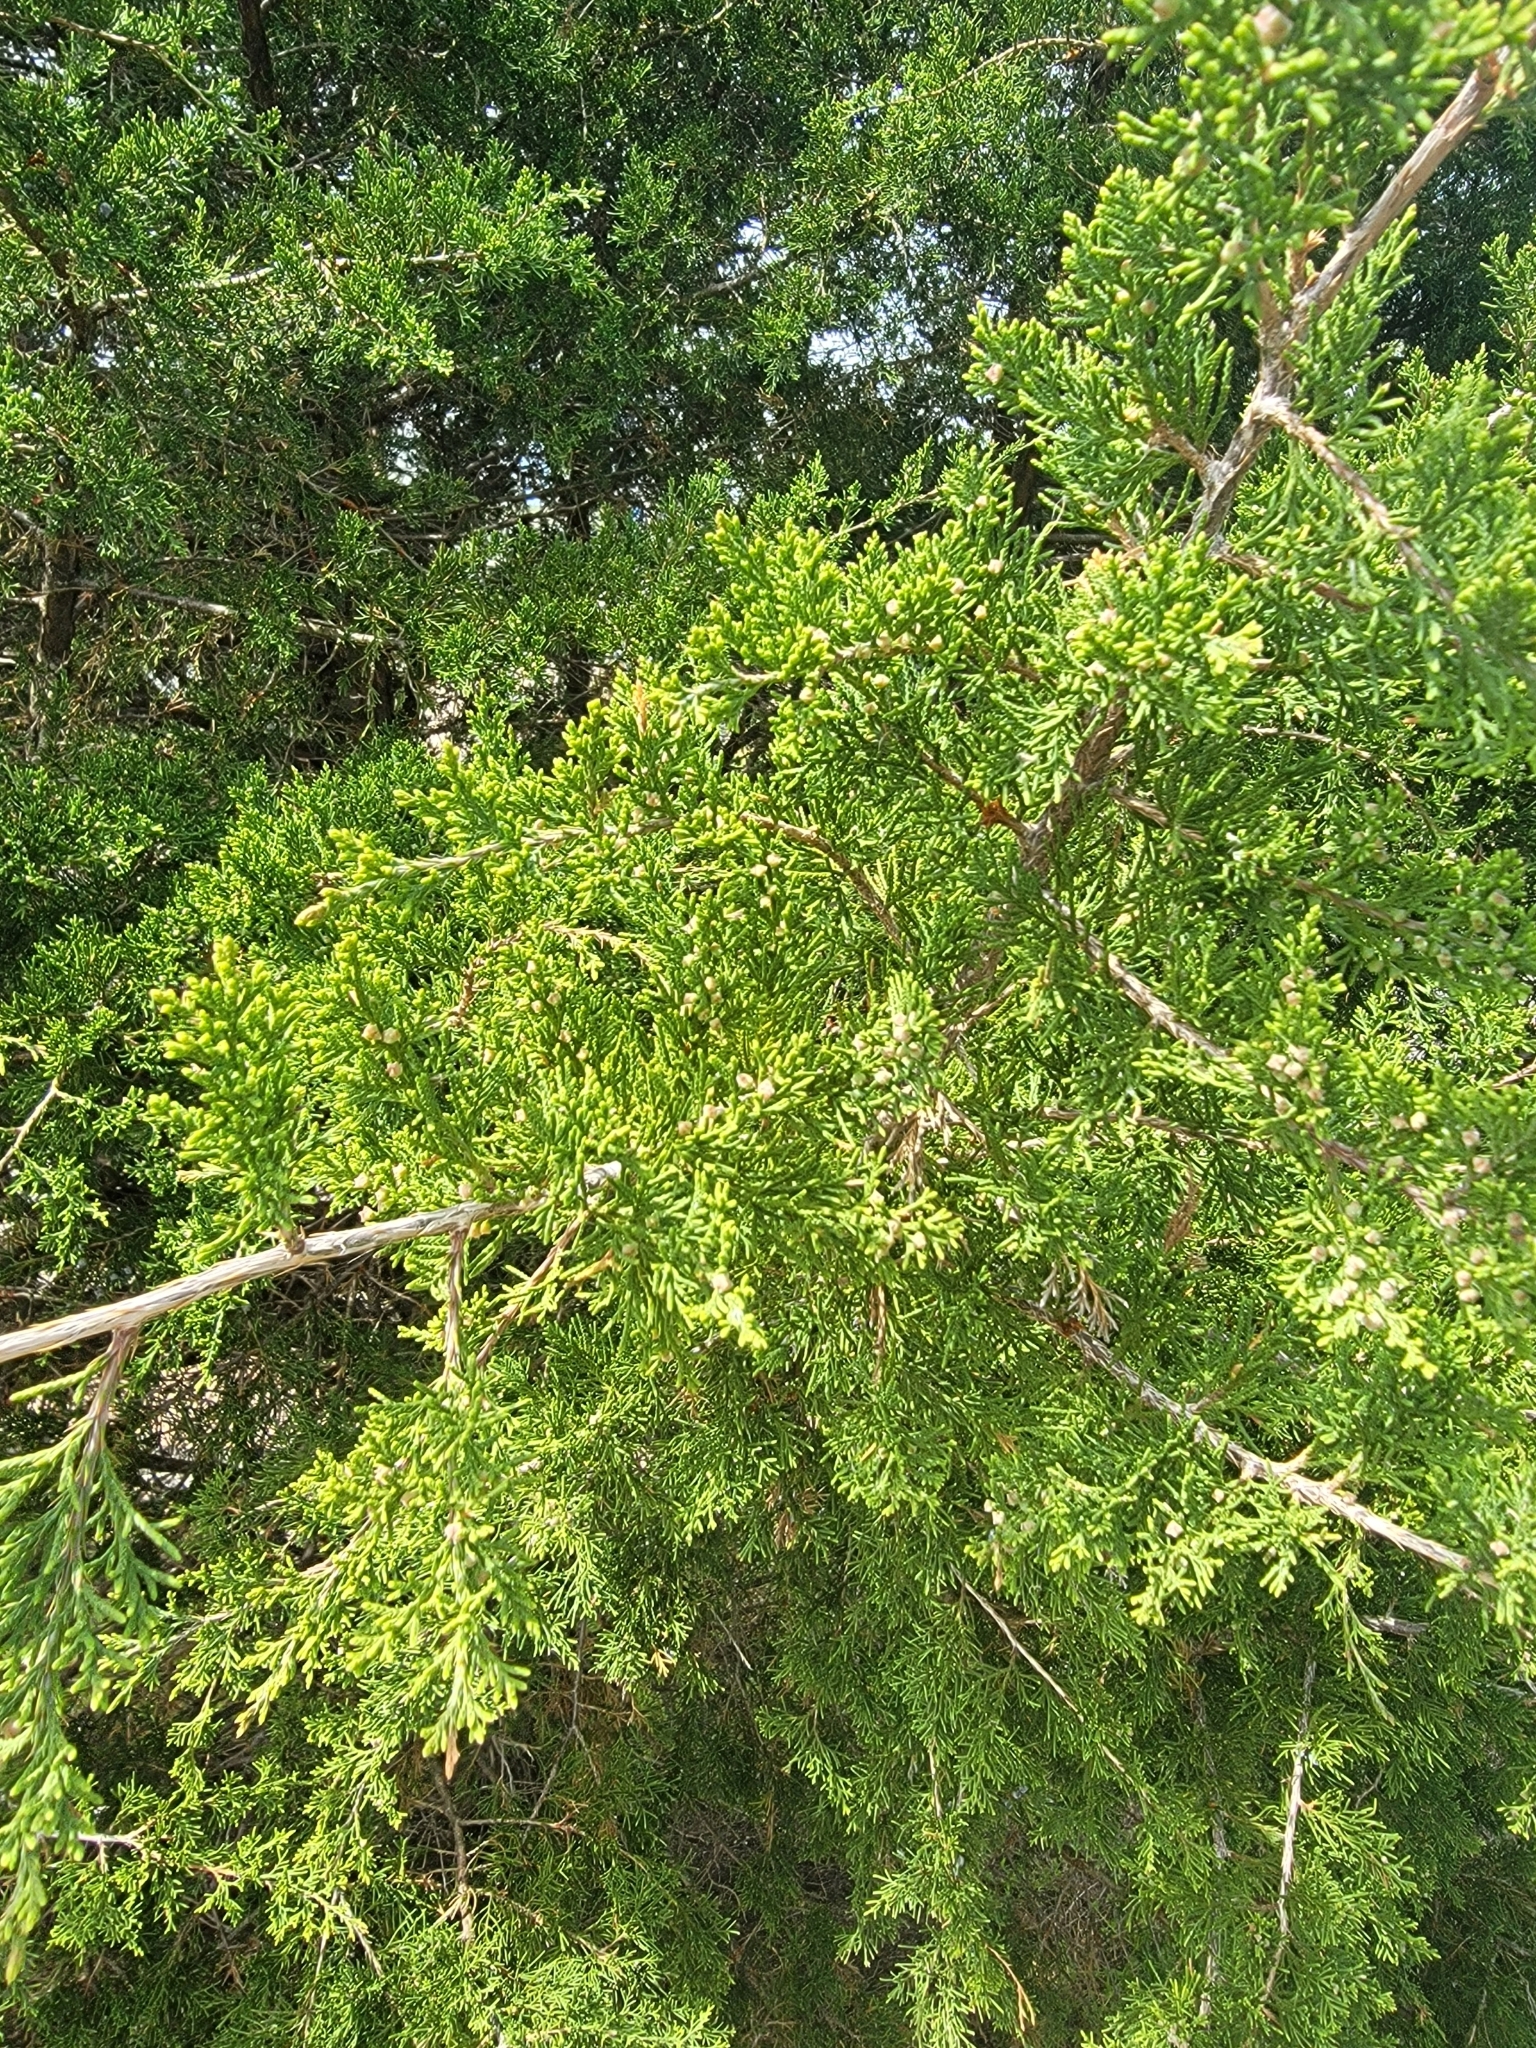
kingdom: Plantae
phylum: Tracheophyta
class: Pinopsida
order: Pinales
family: Cupressaceae
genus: Juniperus
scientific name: Juniperus virginiana
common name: Red juniper
